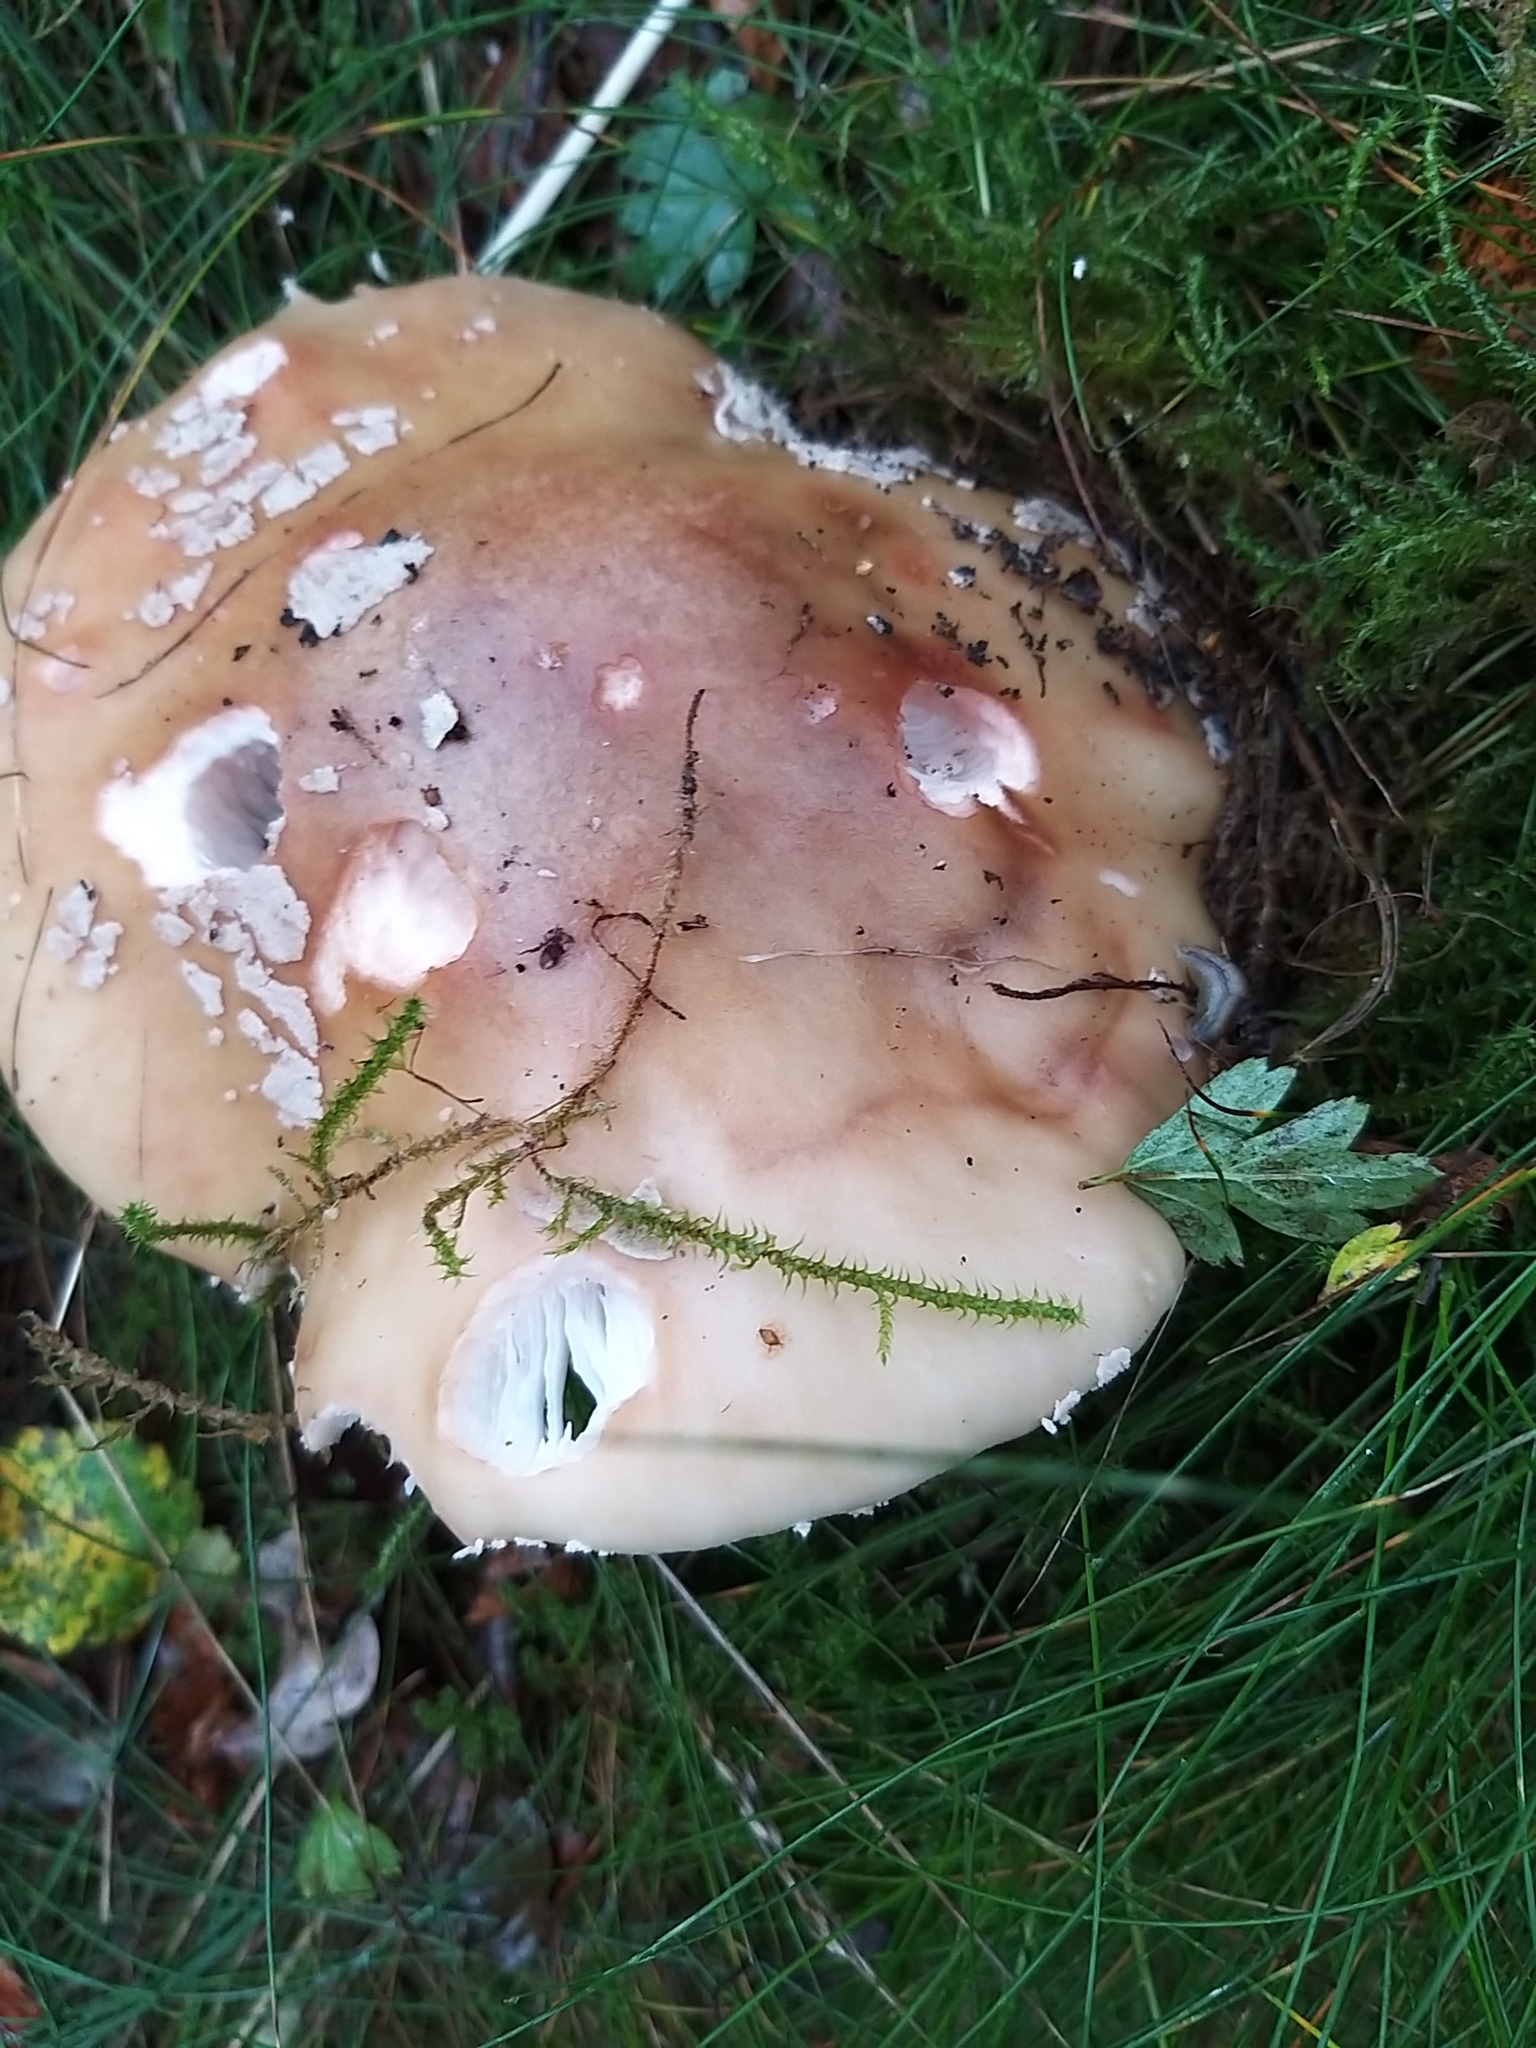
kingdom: Fungi
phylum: Basidiomycota
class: Agaricomycetes
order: Agaricales
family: Amanitaceae
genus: Amanita
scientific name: Amanita rubescens
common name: Blusher
